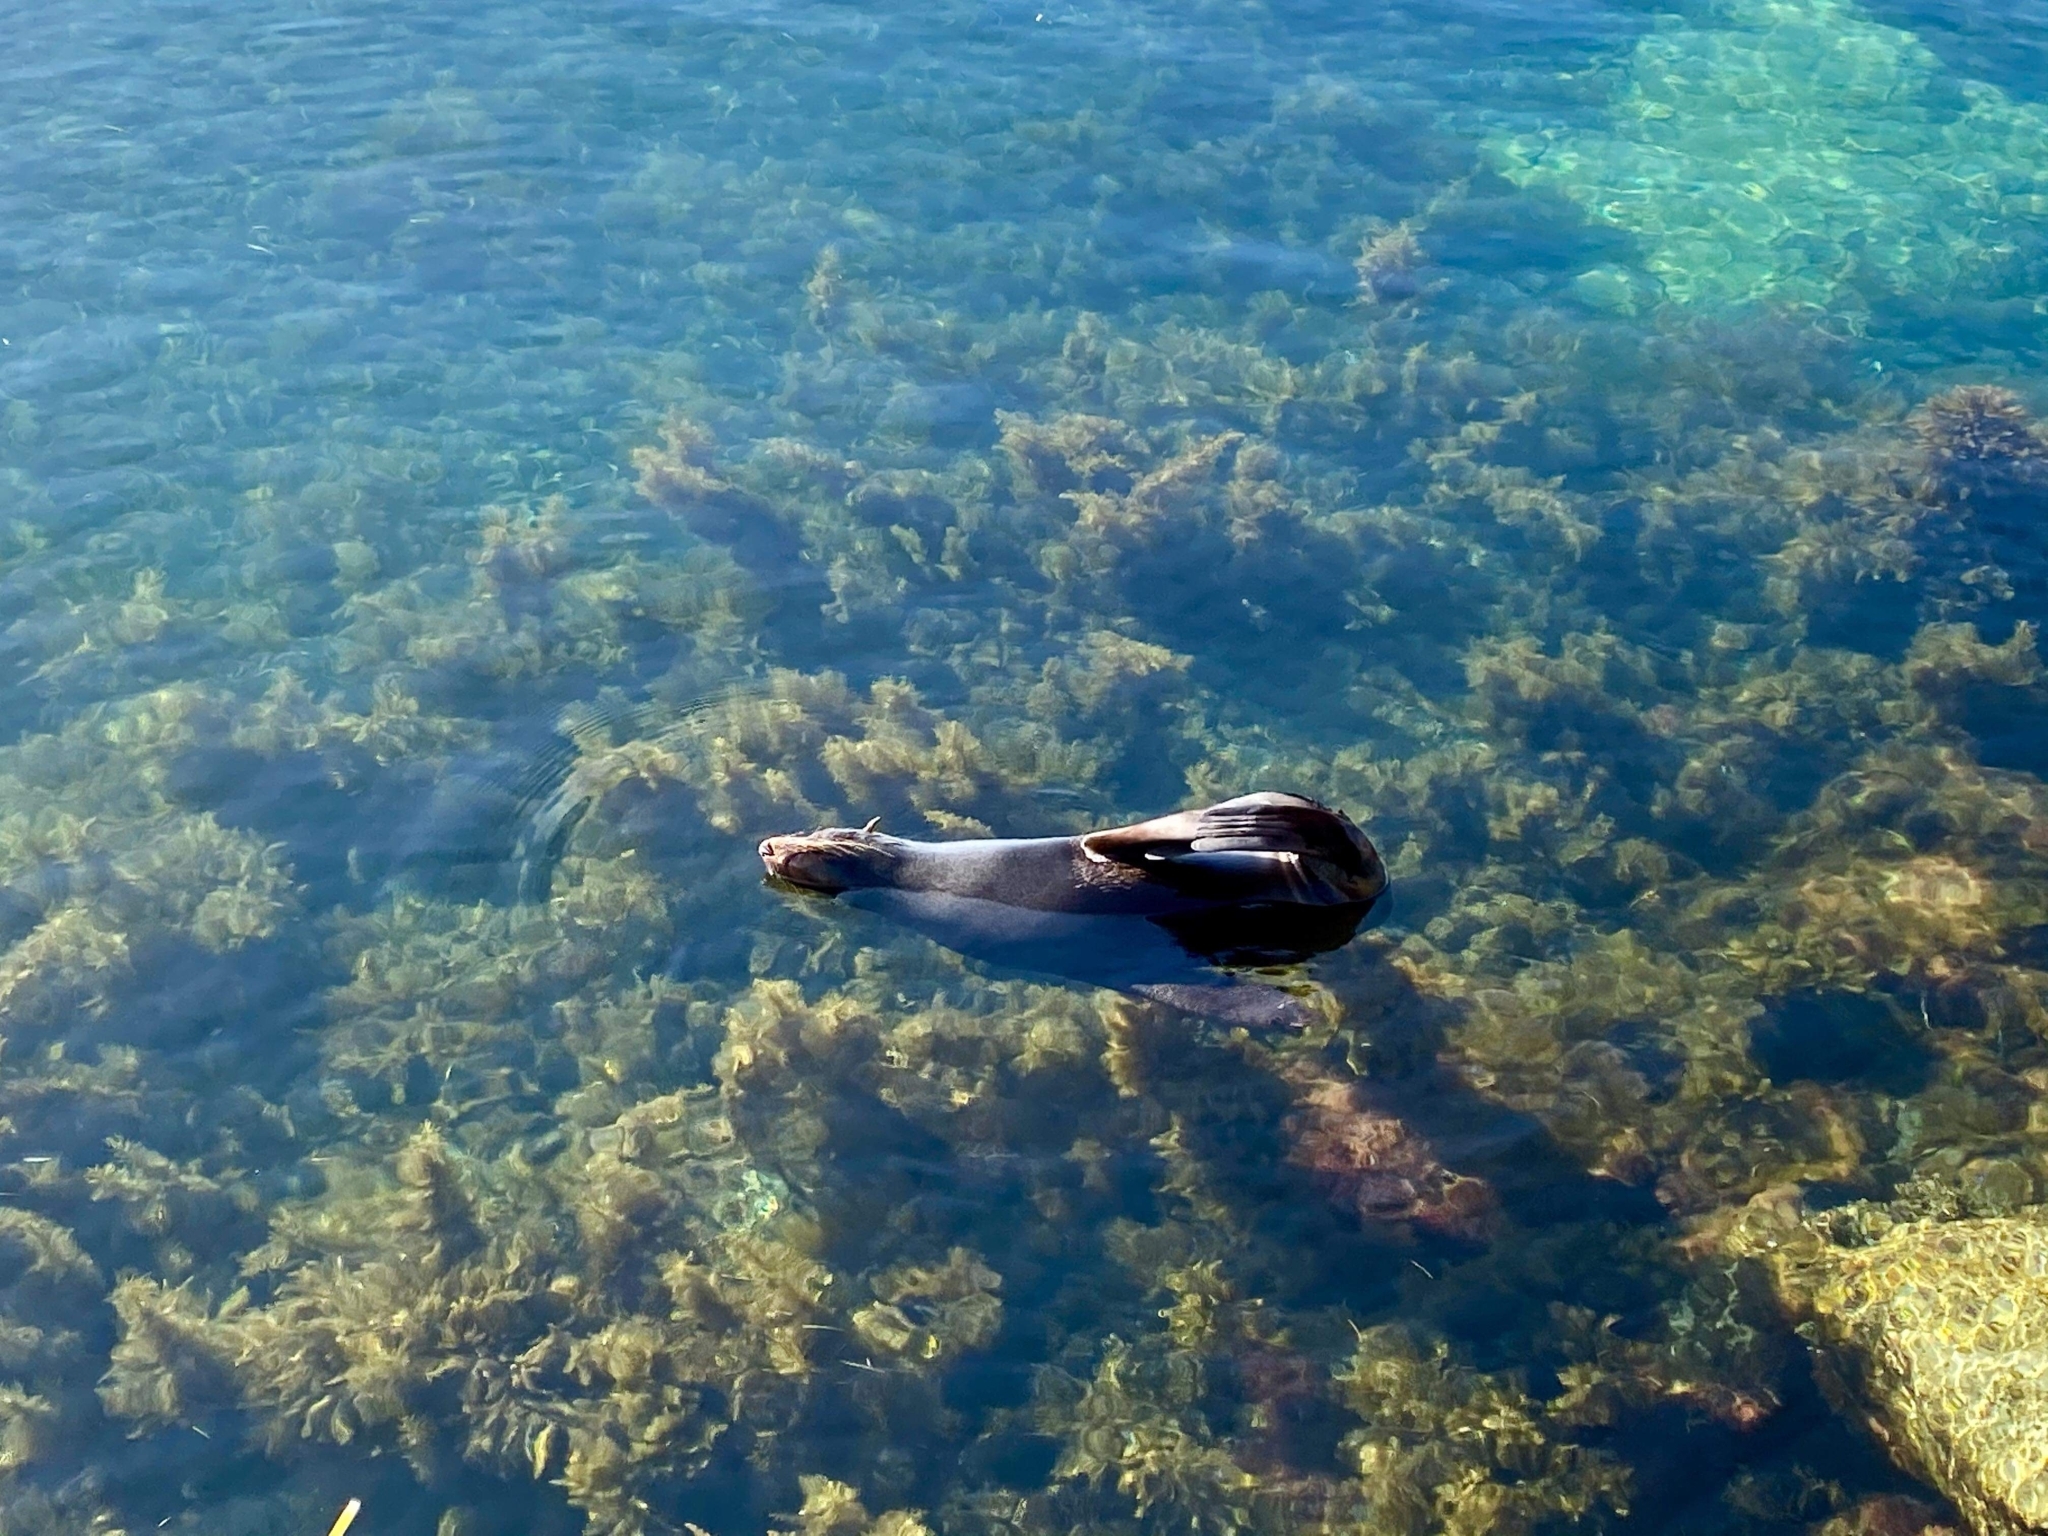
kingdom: Animalia
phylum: Chordata
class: Mammalia
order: Carnivora
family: Otariidae
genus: Arctocephalus
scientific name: Arctocephalus forsteri
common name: New zealand fur seal
